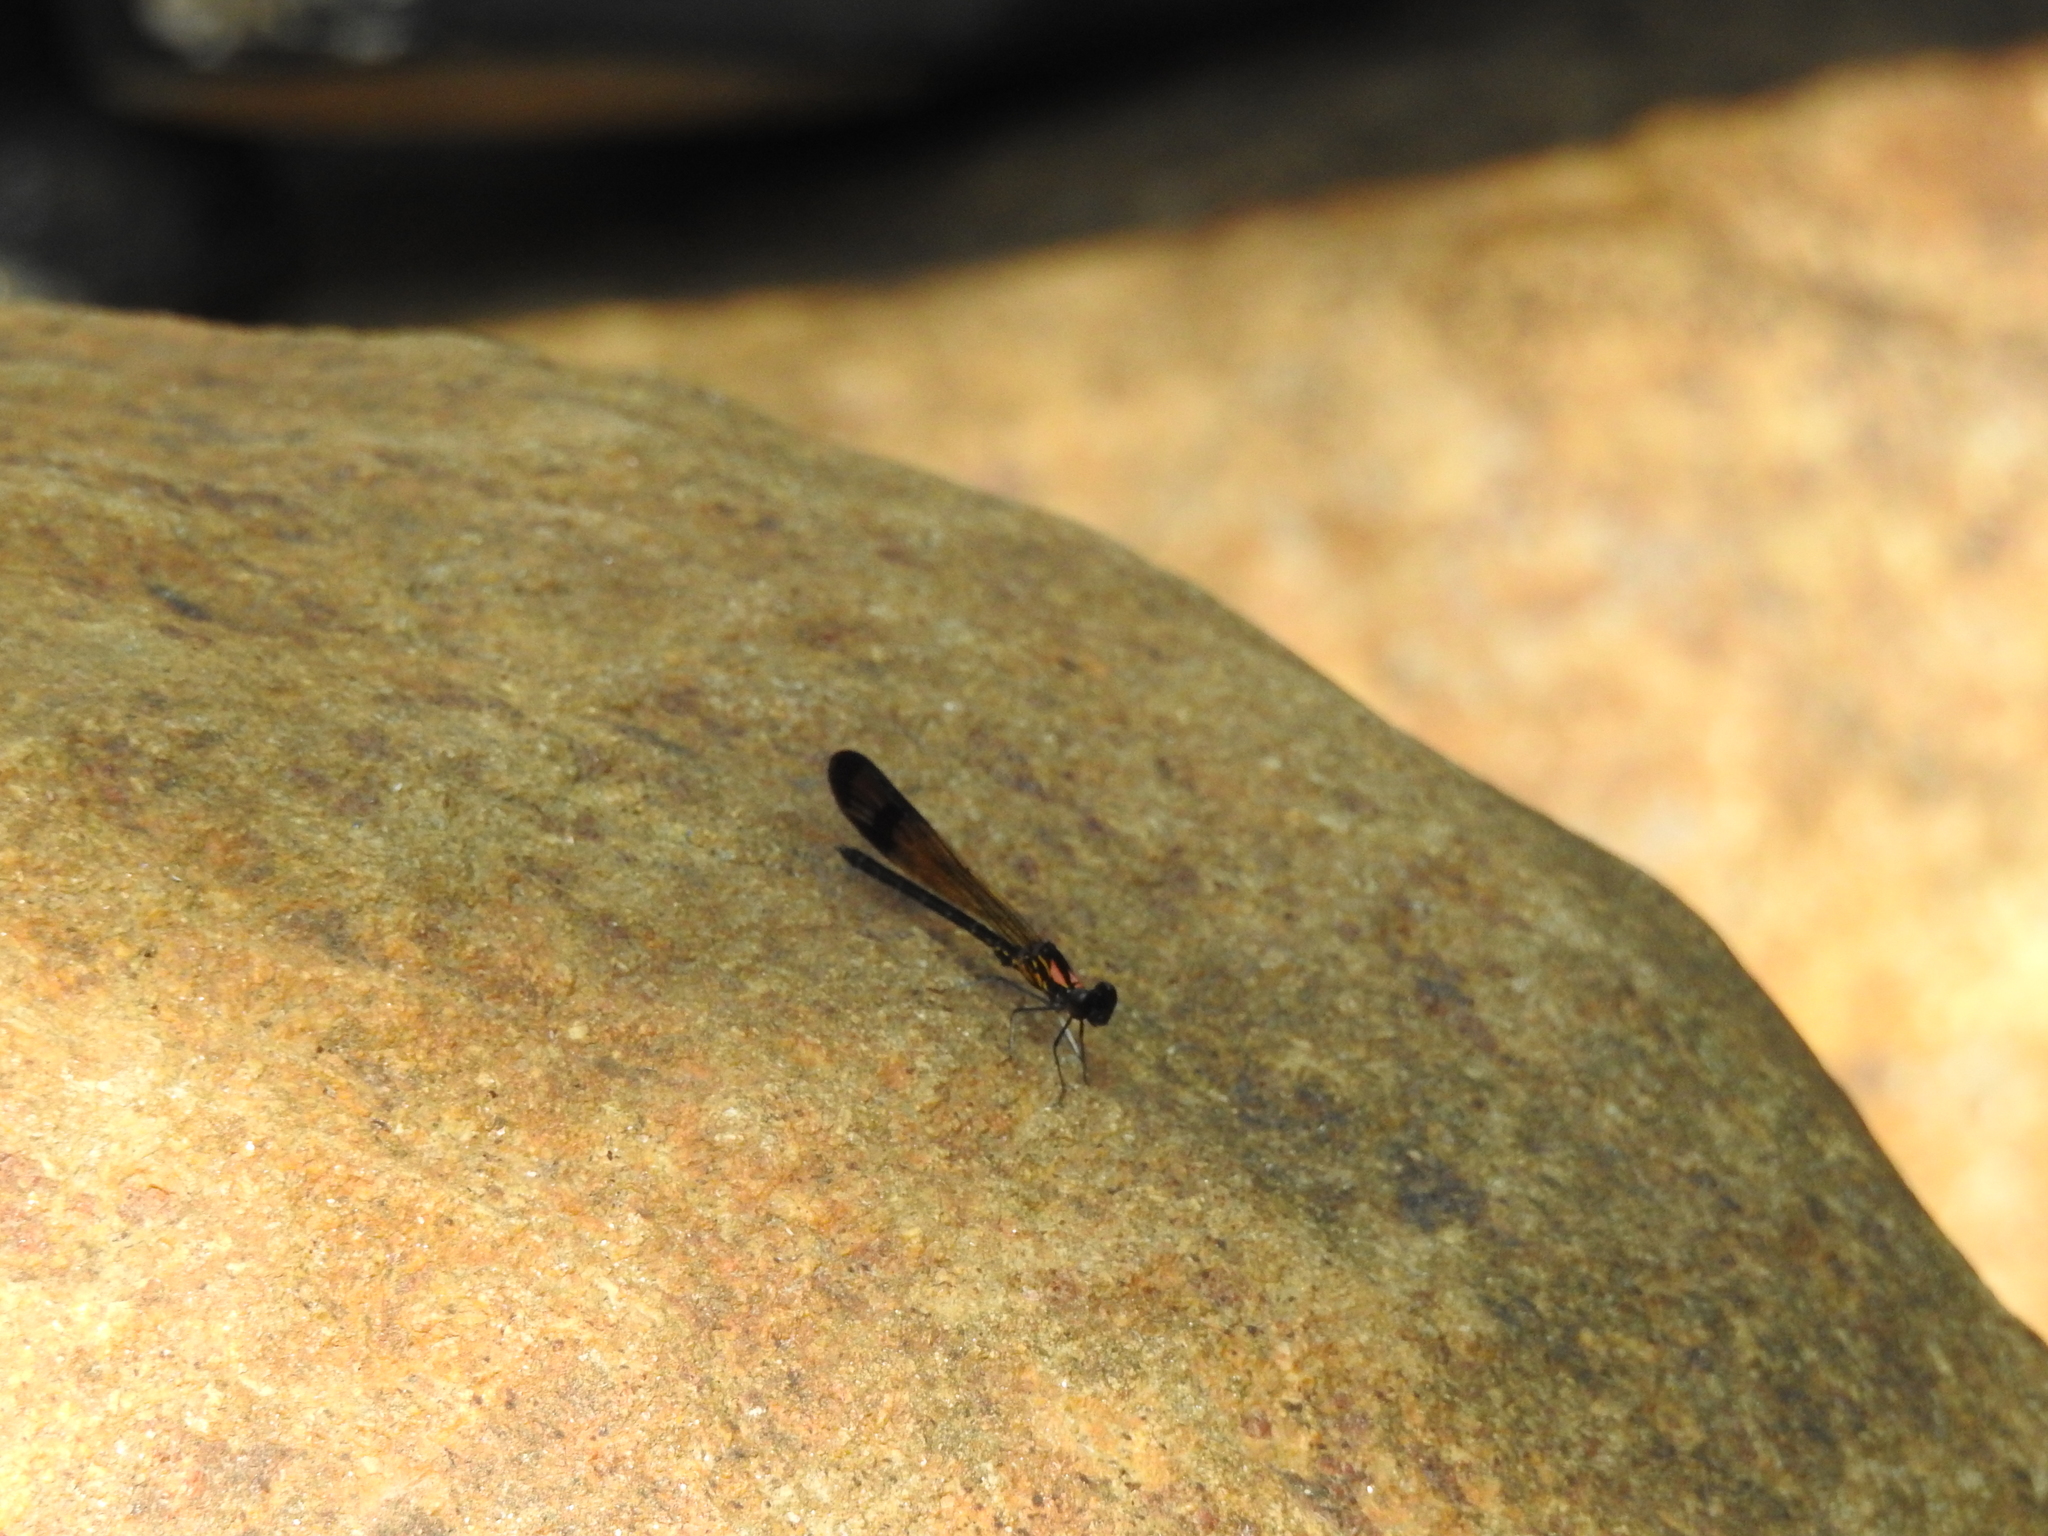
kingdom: Animalia
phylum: Arthropoda
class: Insecta
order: Odonata
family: Chlorocyphidae
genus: Heliocypha
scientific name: Heliocypha bisignata
